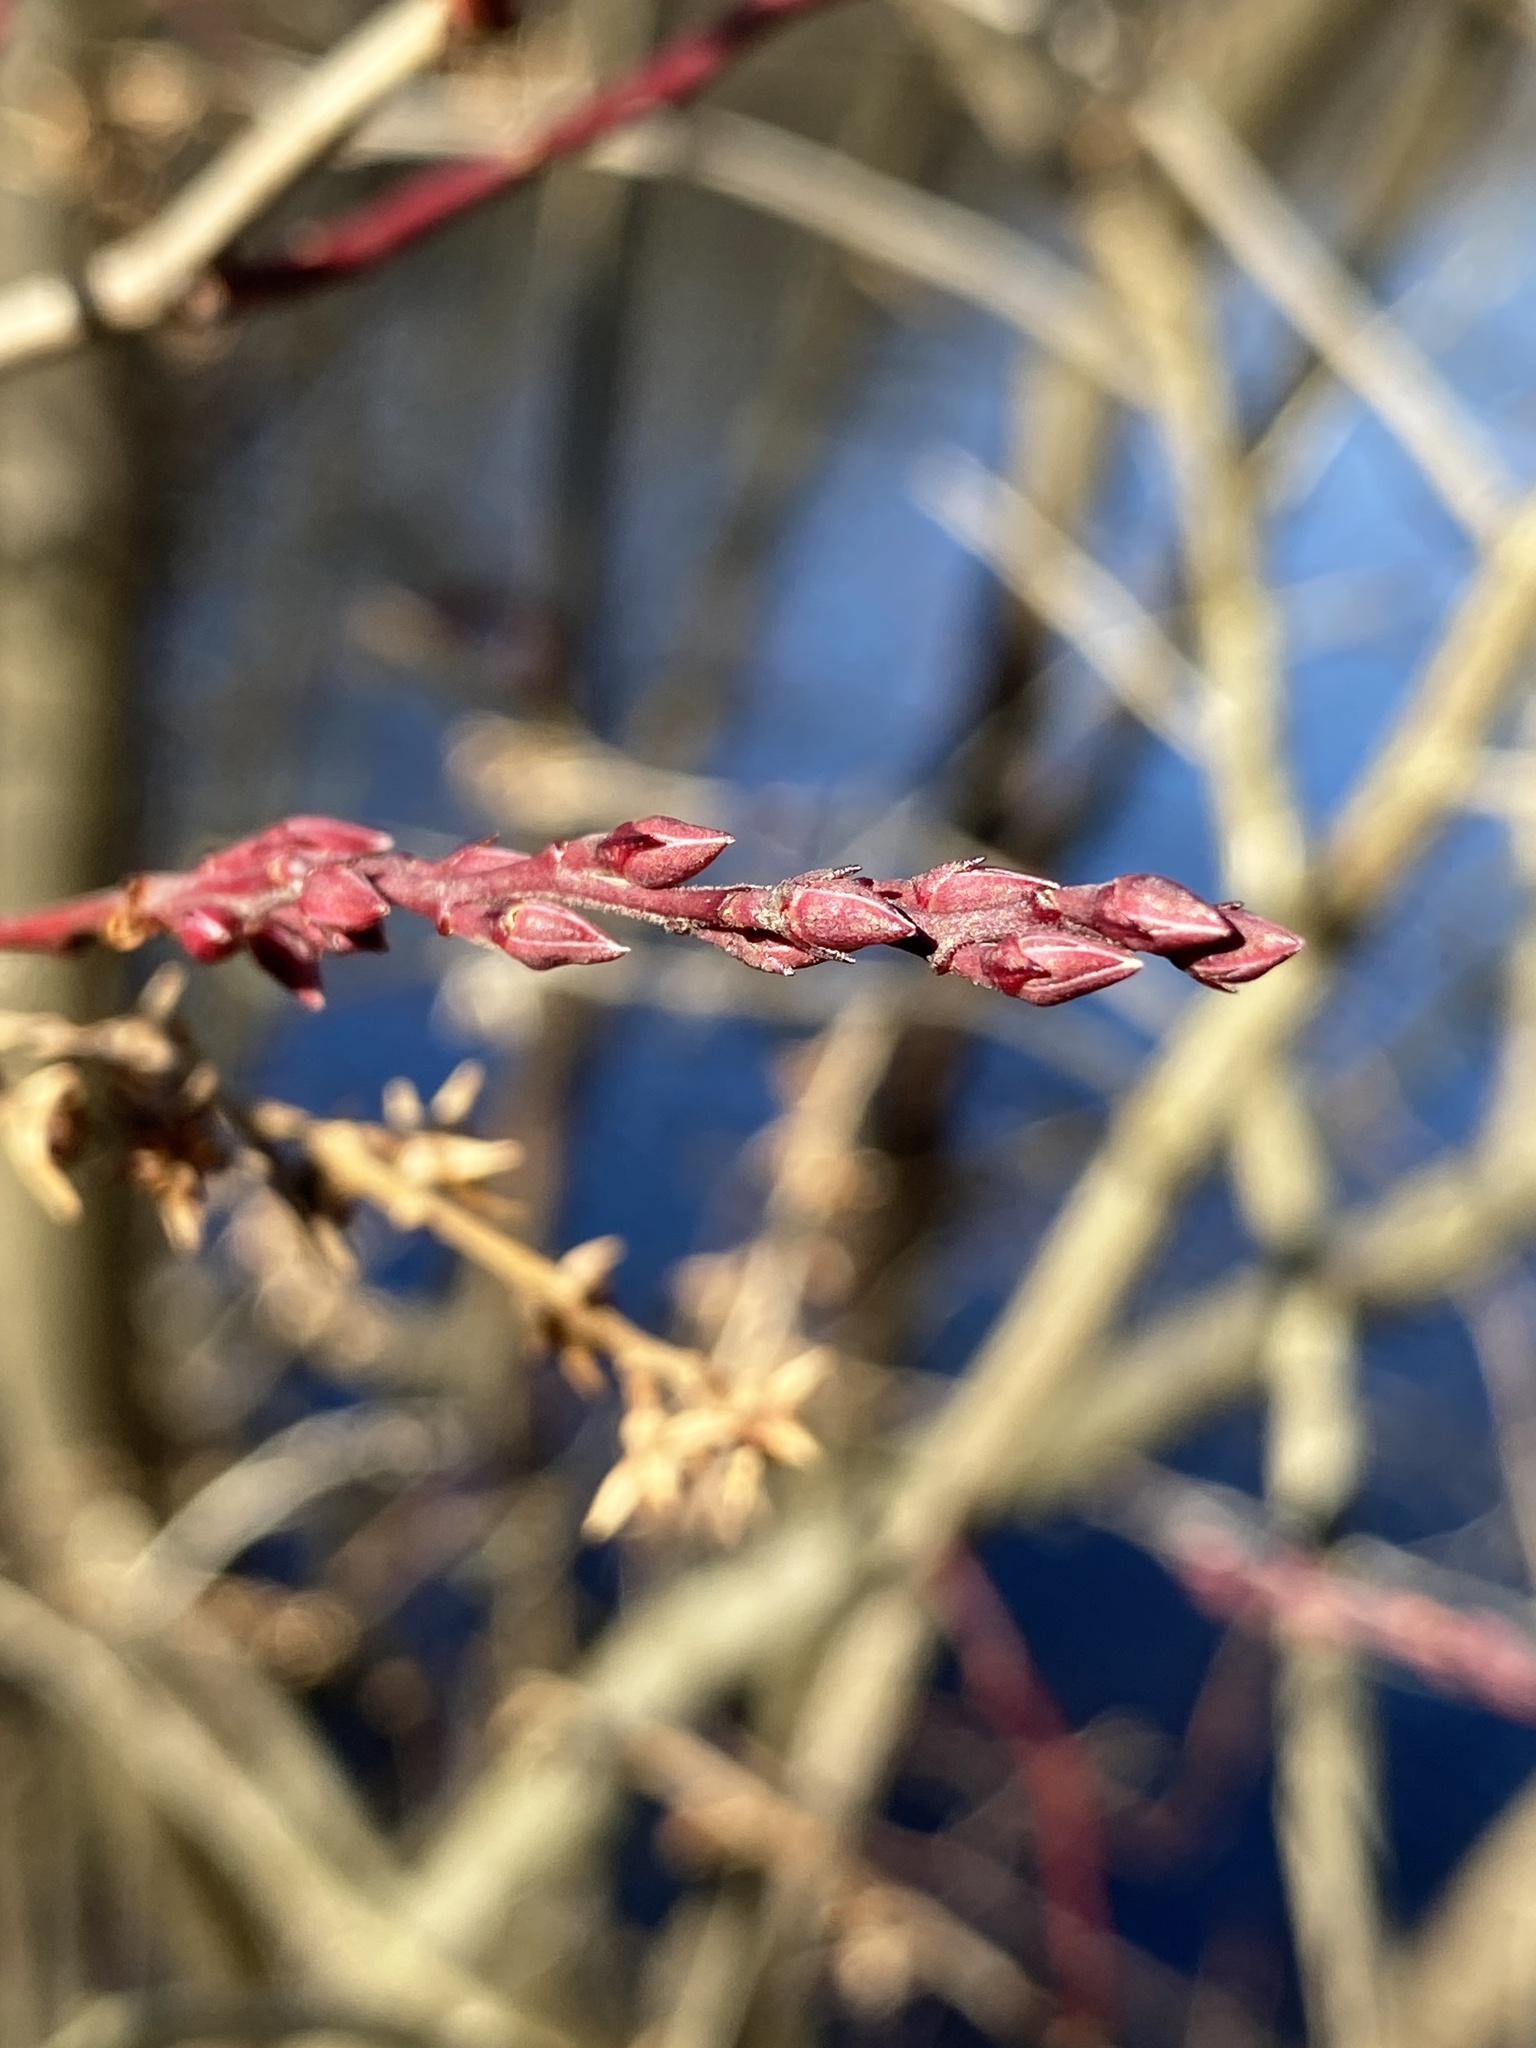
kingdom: Plantae
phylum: Tracheophyta
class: Magnoliopsida
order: Ericales
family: Ericaceae
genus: Eubotrys
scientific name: Eubotrys racemosa
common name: Fetterbush
